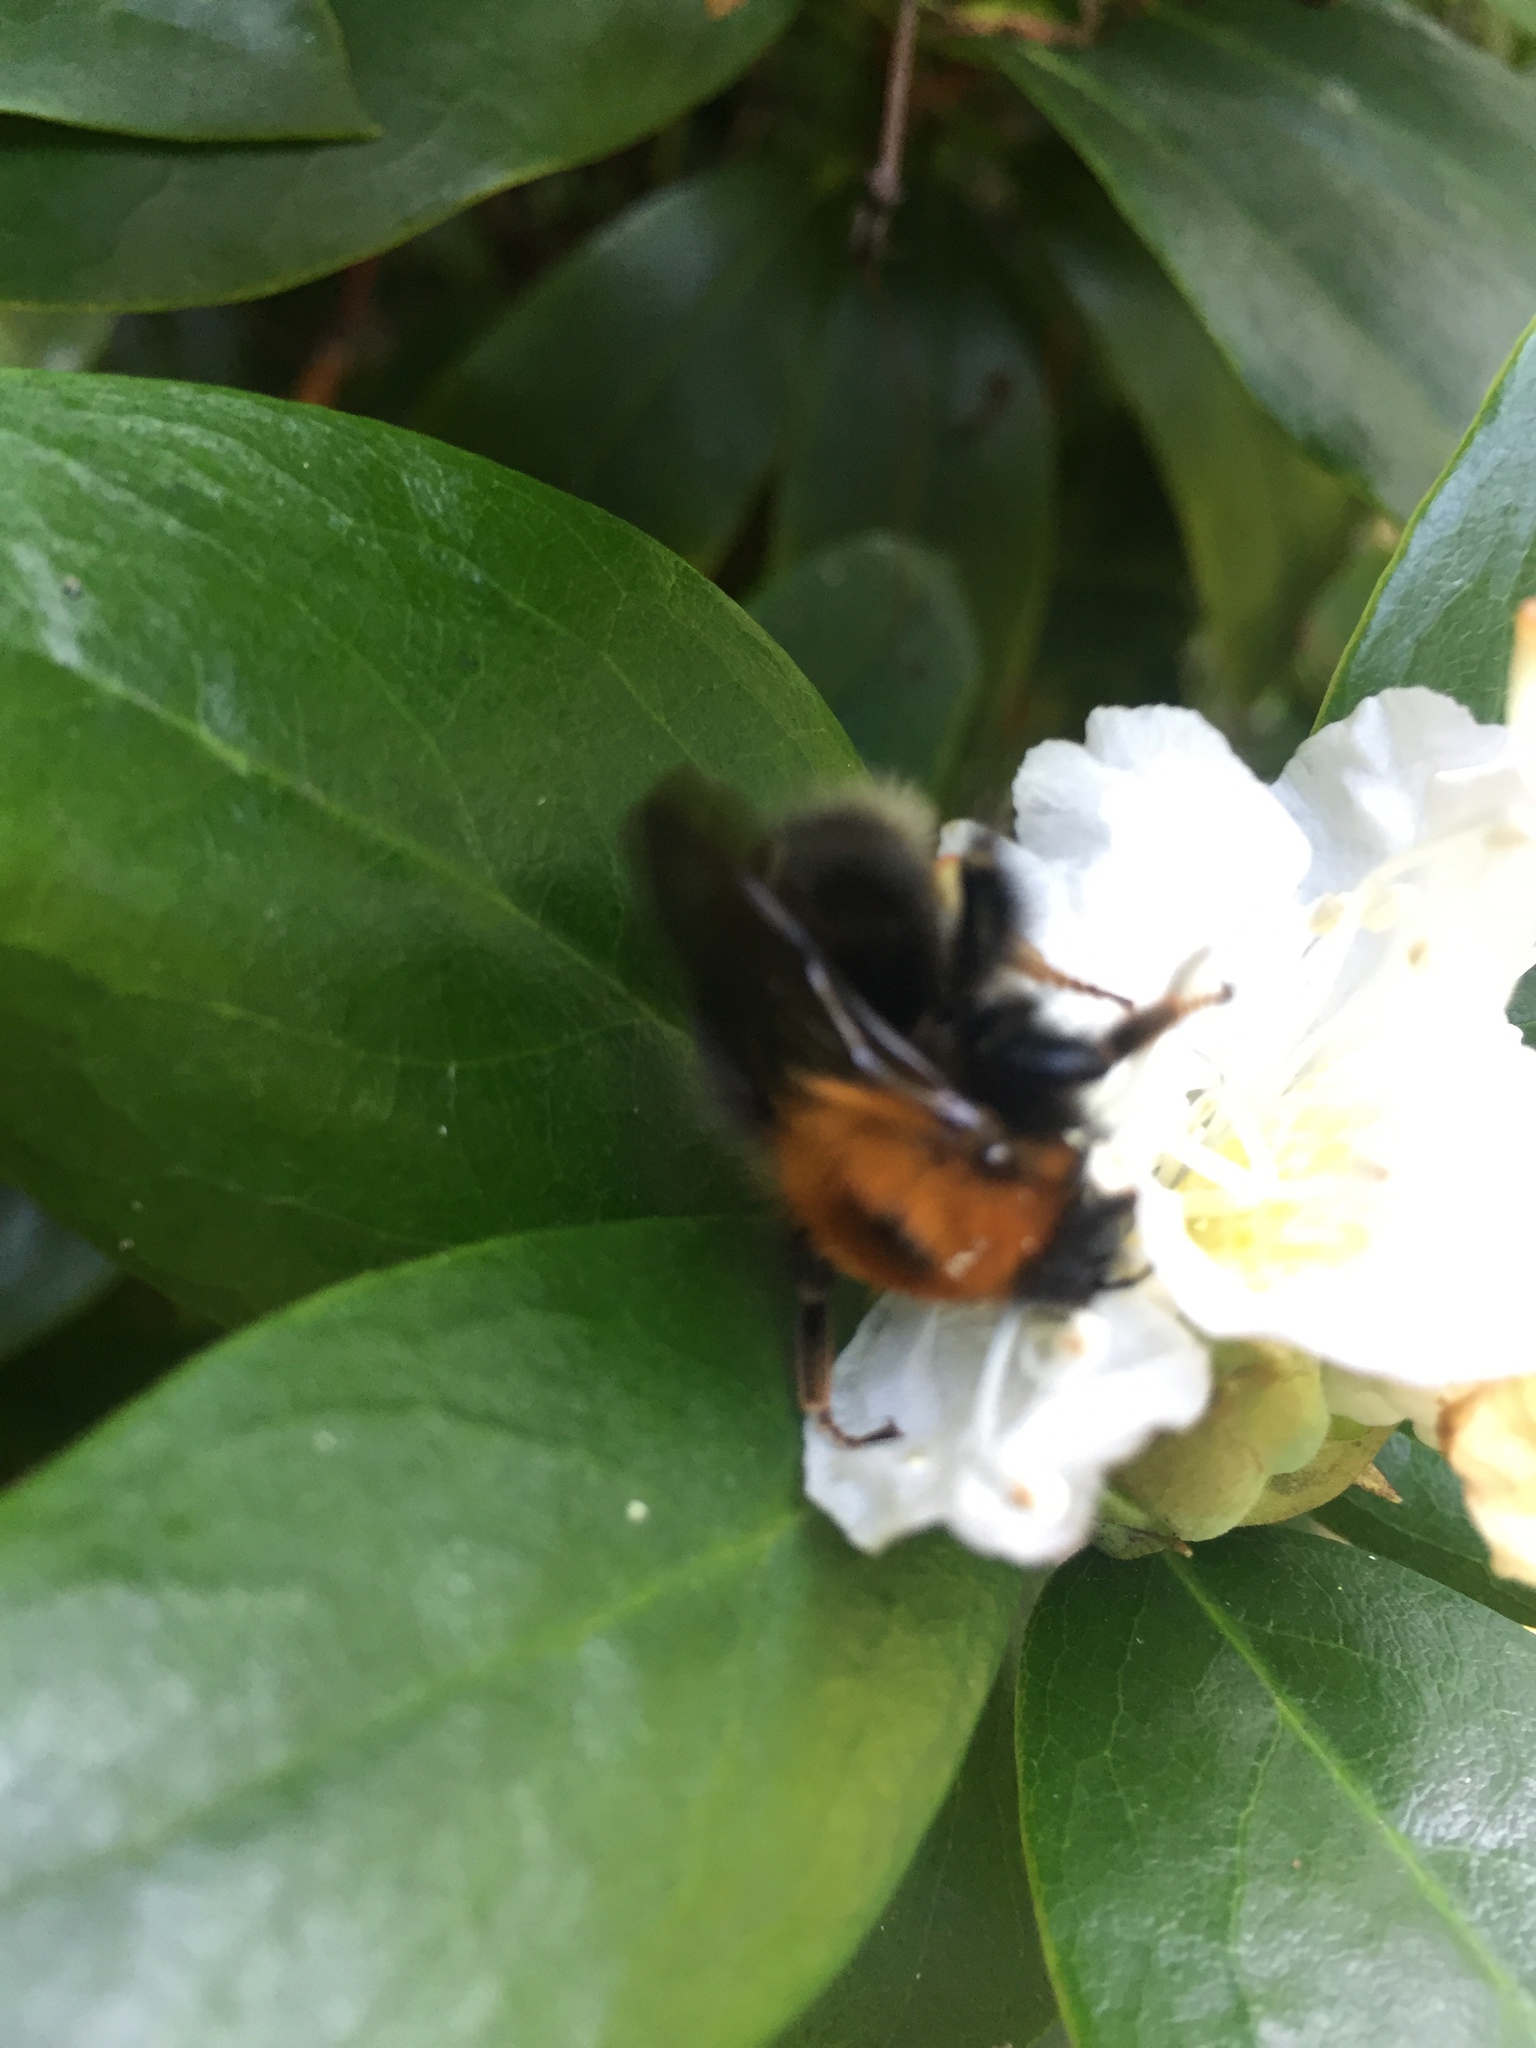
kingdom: Animalia
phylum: Arthropoda
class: Insecta
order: Hymenoptera
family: Apidae
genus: Bombus
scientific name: Bombus hypnorum
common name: New garden bumblebee
